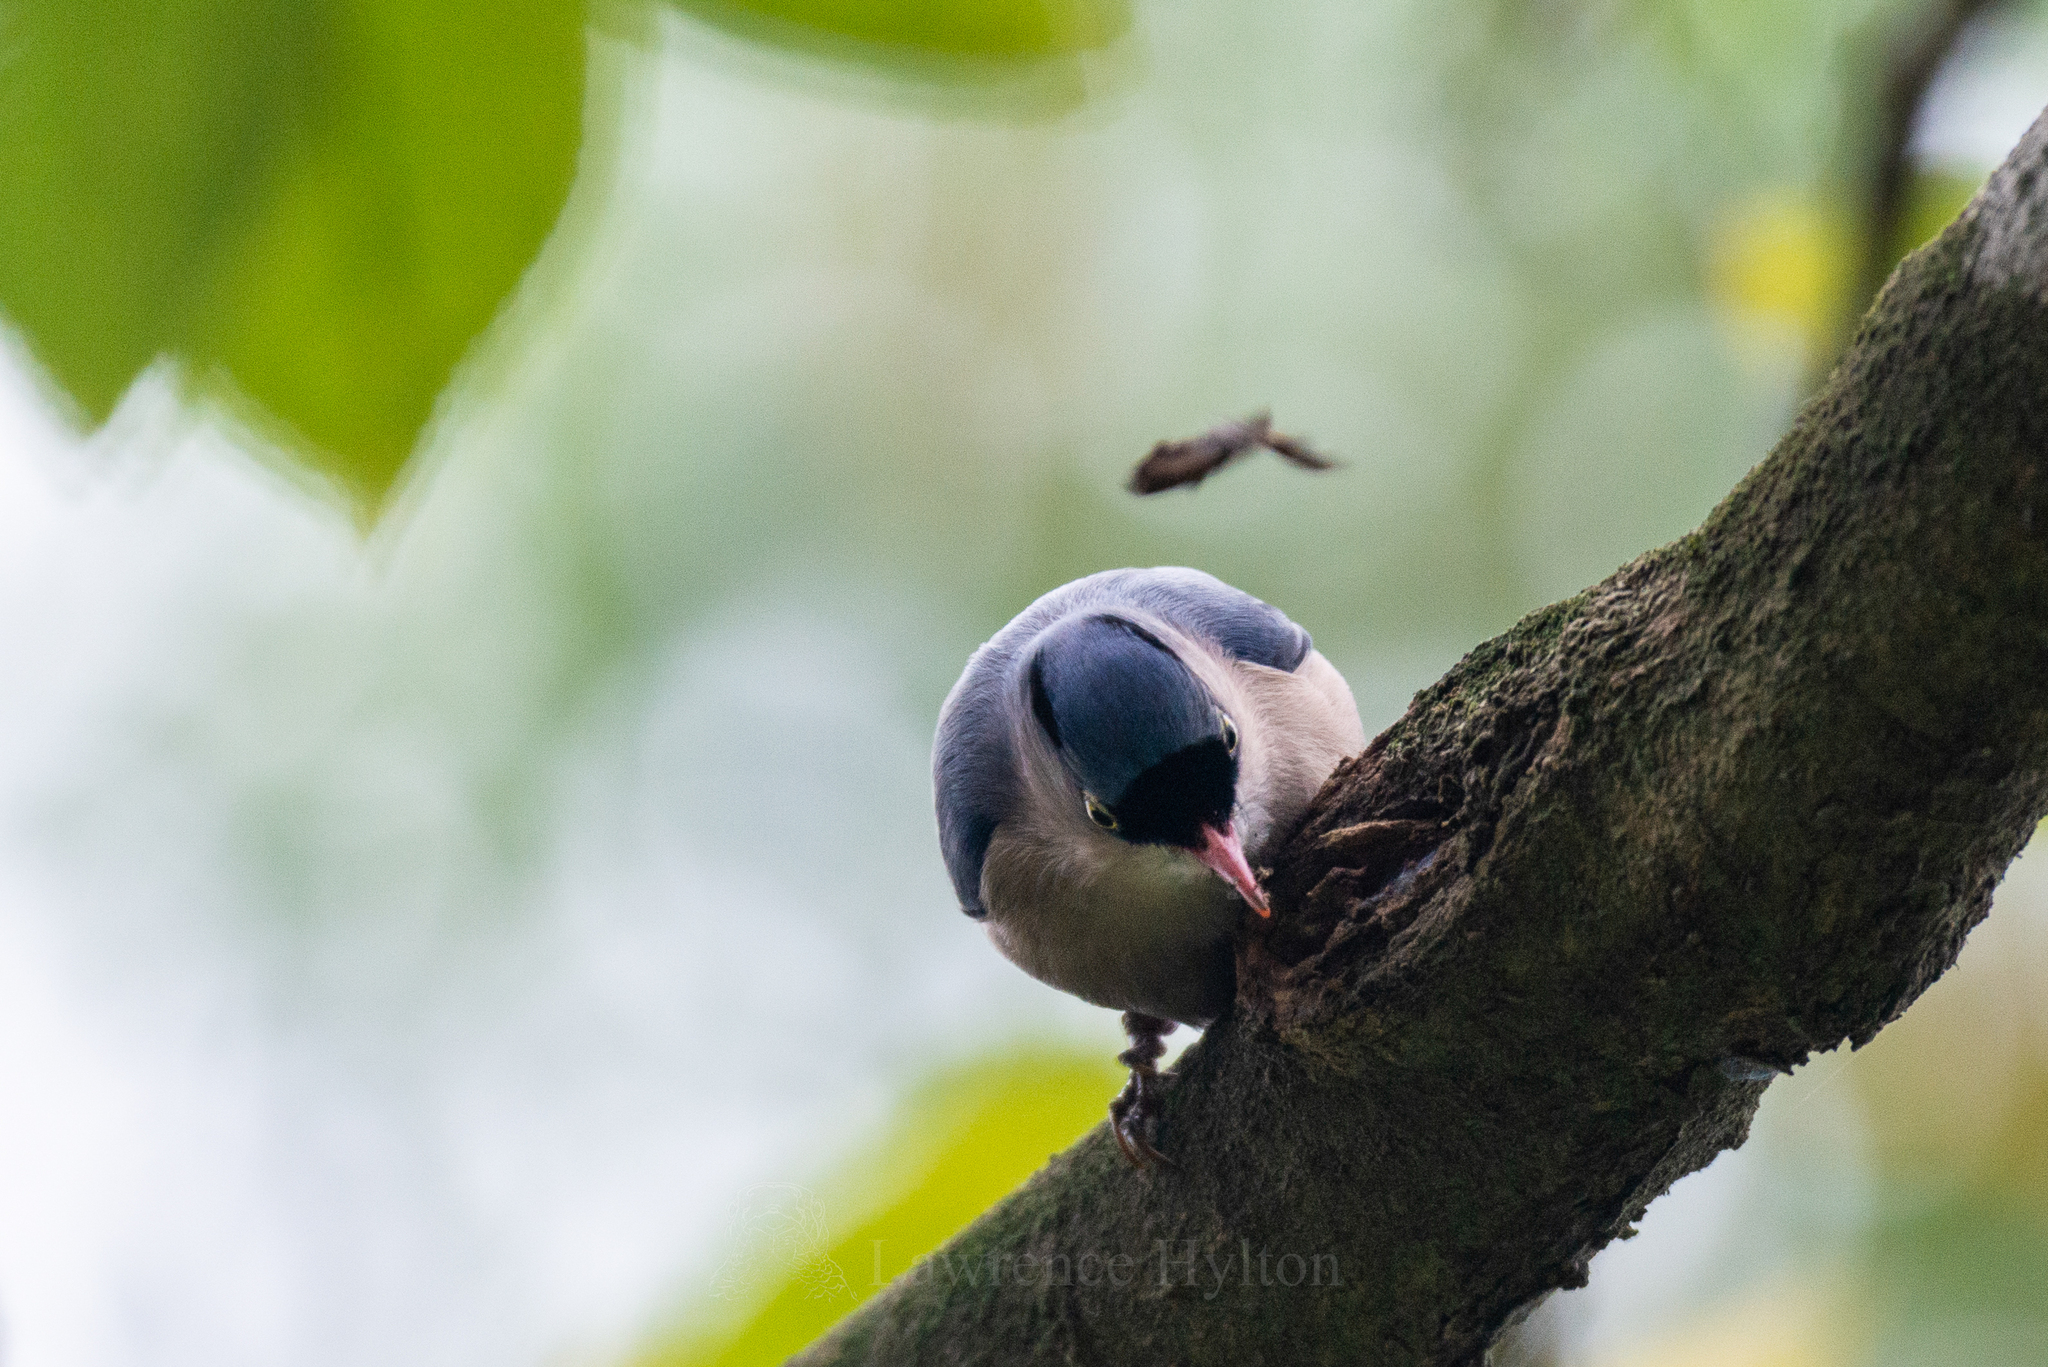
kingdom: Animalia
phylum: Chordata
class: Aves
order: Passeriformes
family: Sittidae
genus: Sitta
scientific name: Sitta frontalis
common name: Velvet-fronted nuthatch
